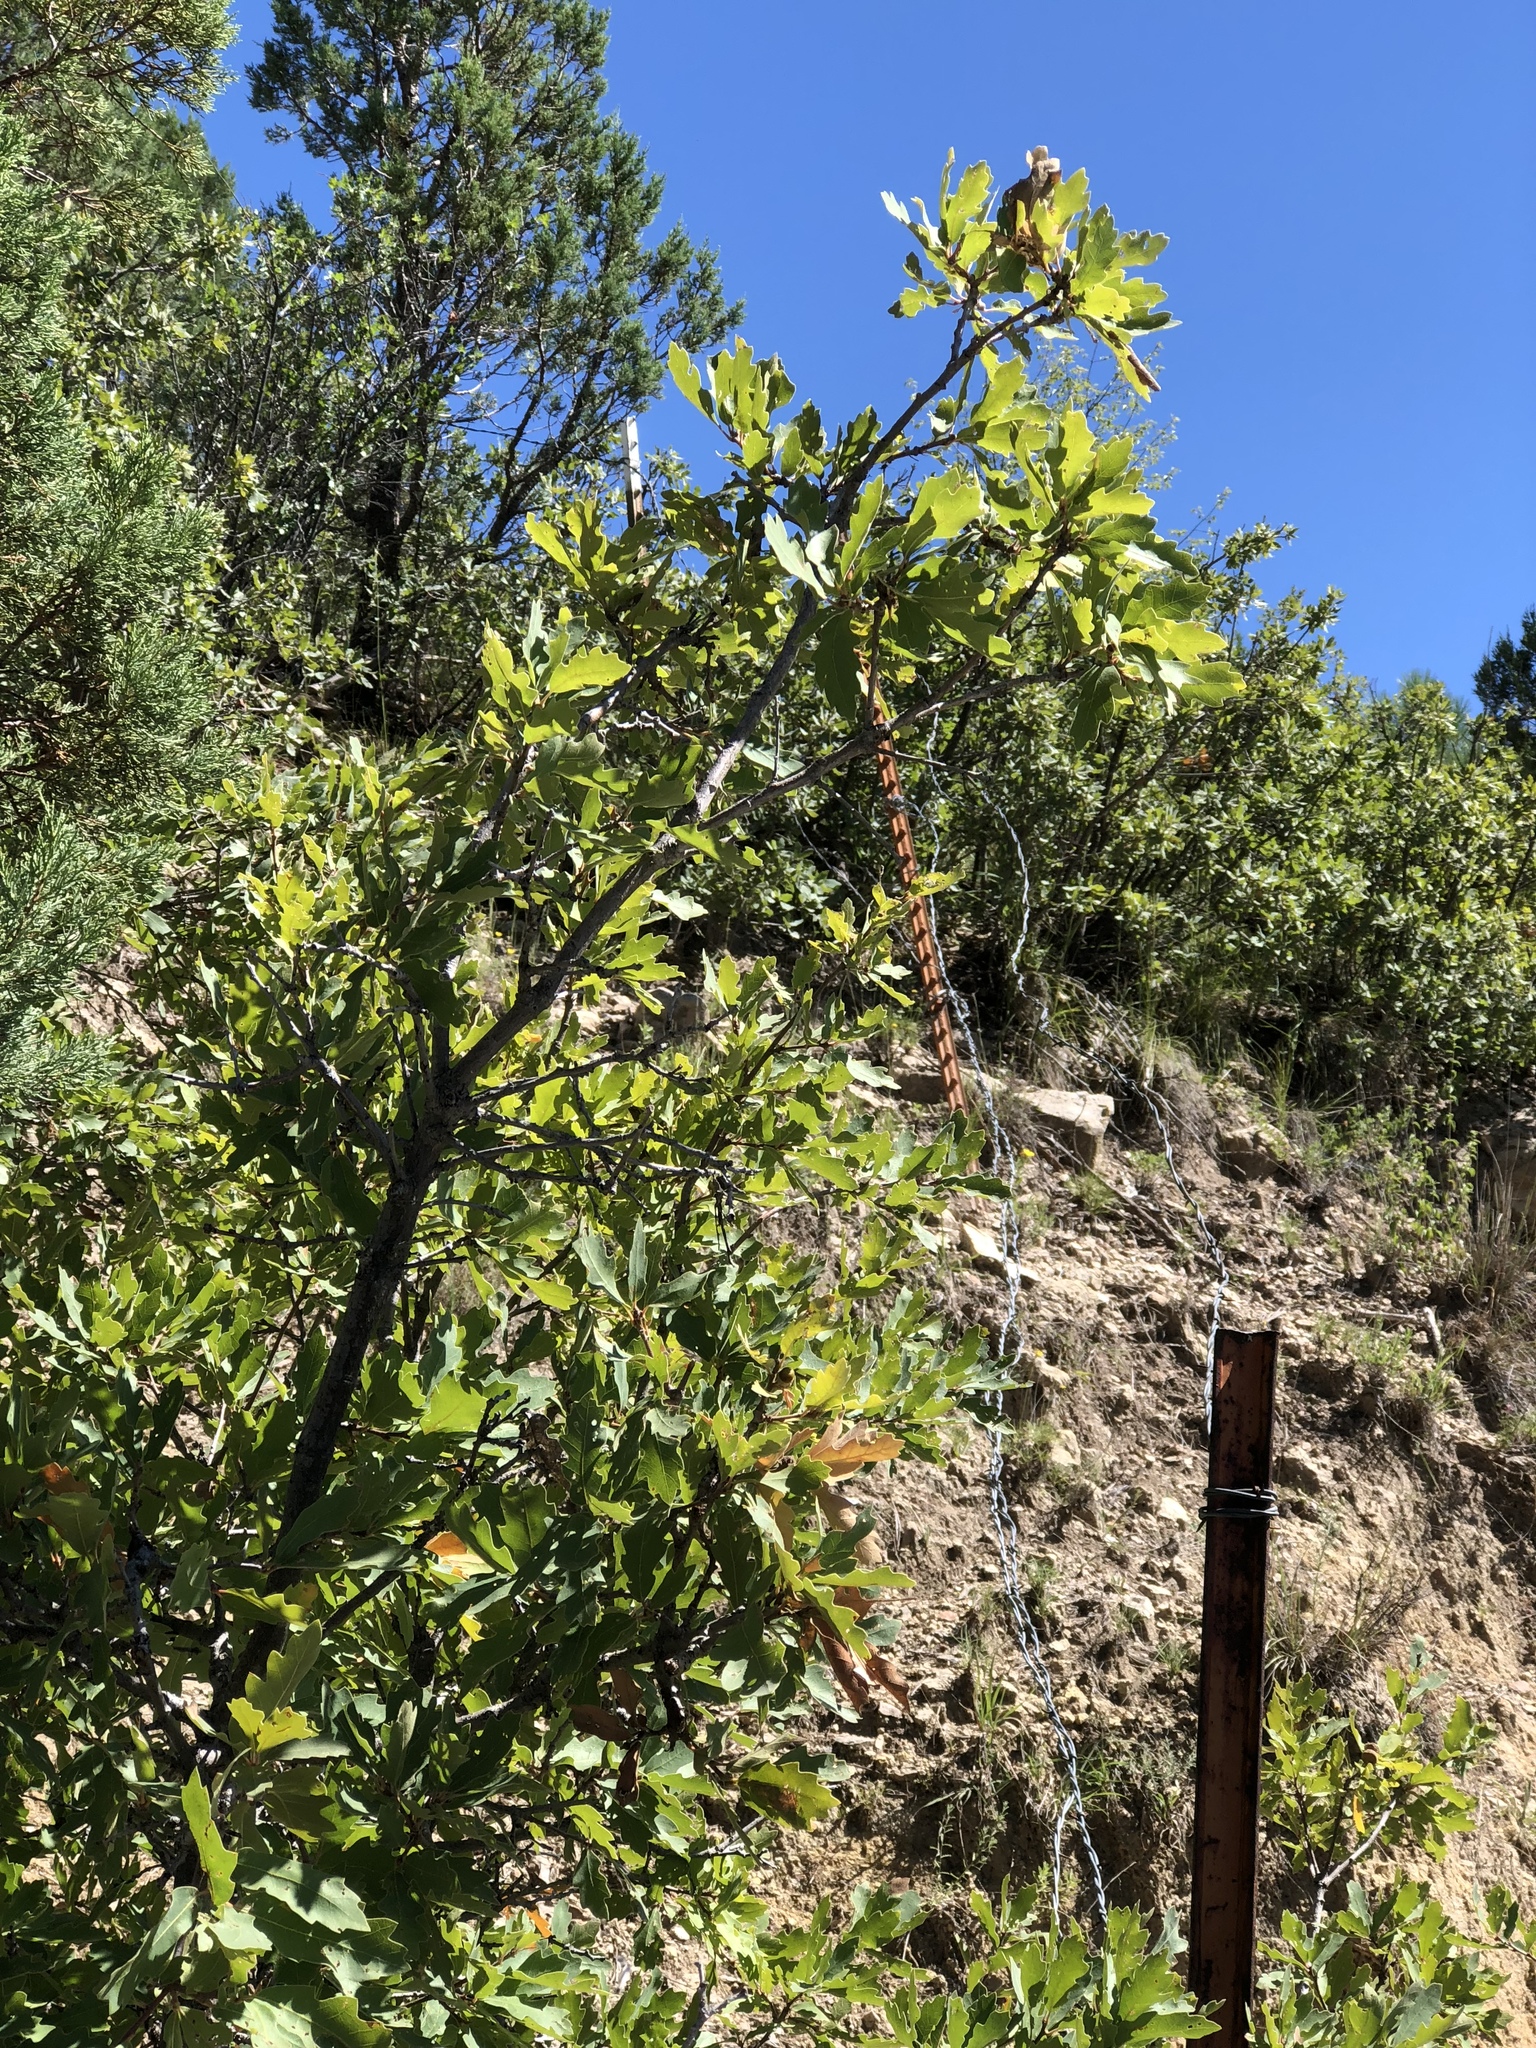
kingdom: Plantae
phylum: Tracheophyta
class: Magnoliopsida
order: Fagales
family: Fagaceae
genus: Quercus
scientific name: Quercus gambelii
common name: Gambel oak
